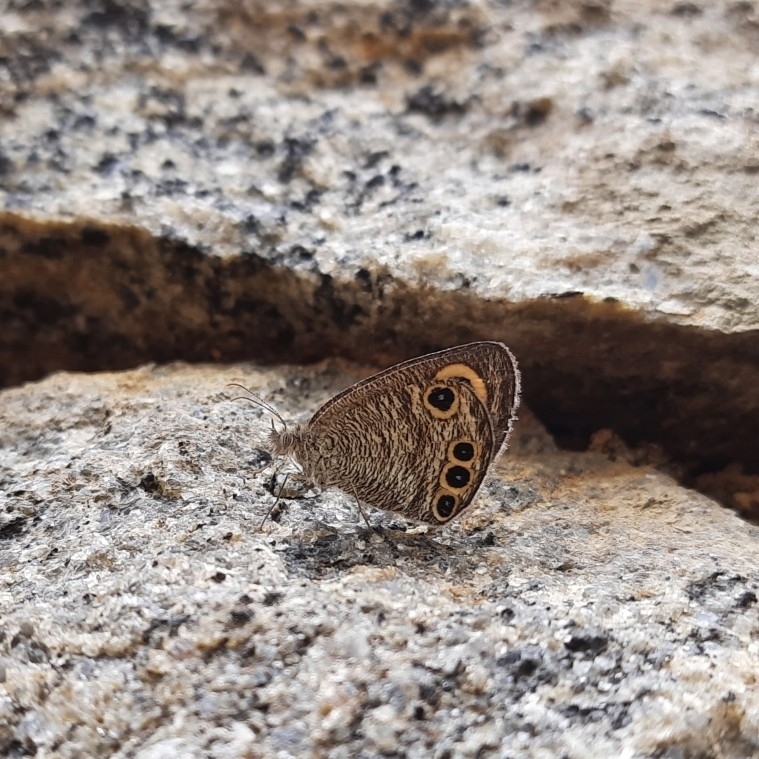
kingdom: Animalia
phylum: Arthropoda
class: Insecta
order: Lepidoptera
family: Nymphalidae
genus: Ypthima
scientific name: Ypthima huebneri
